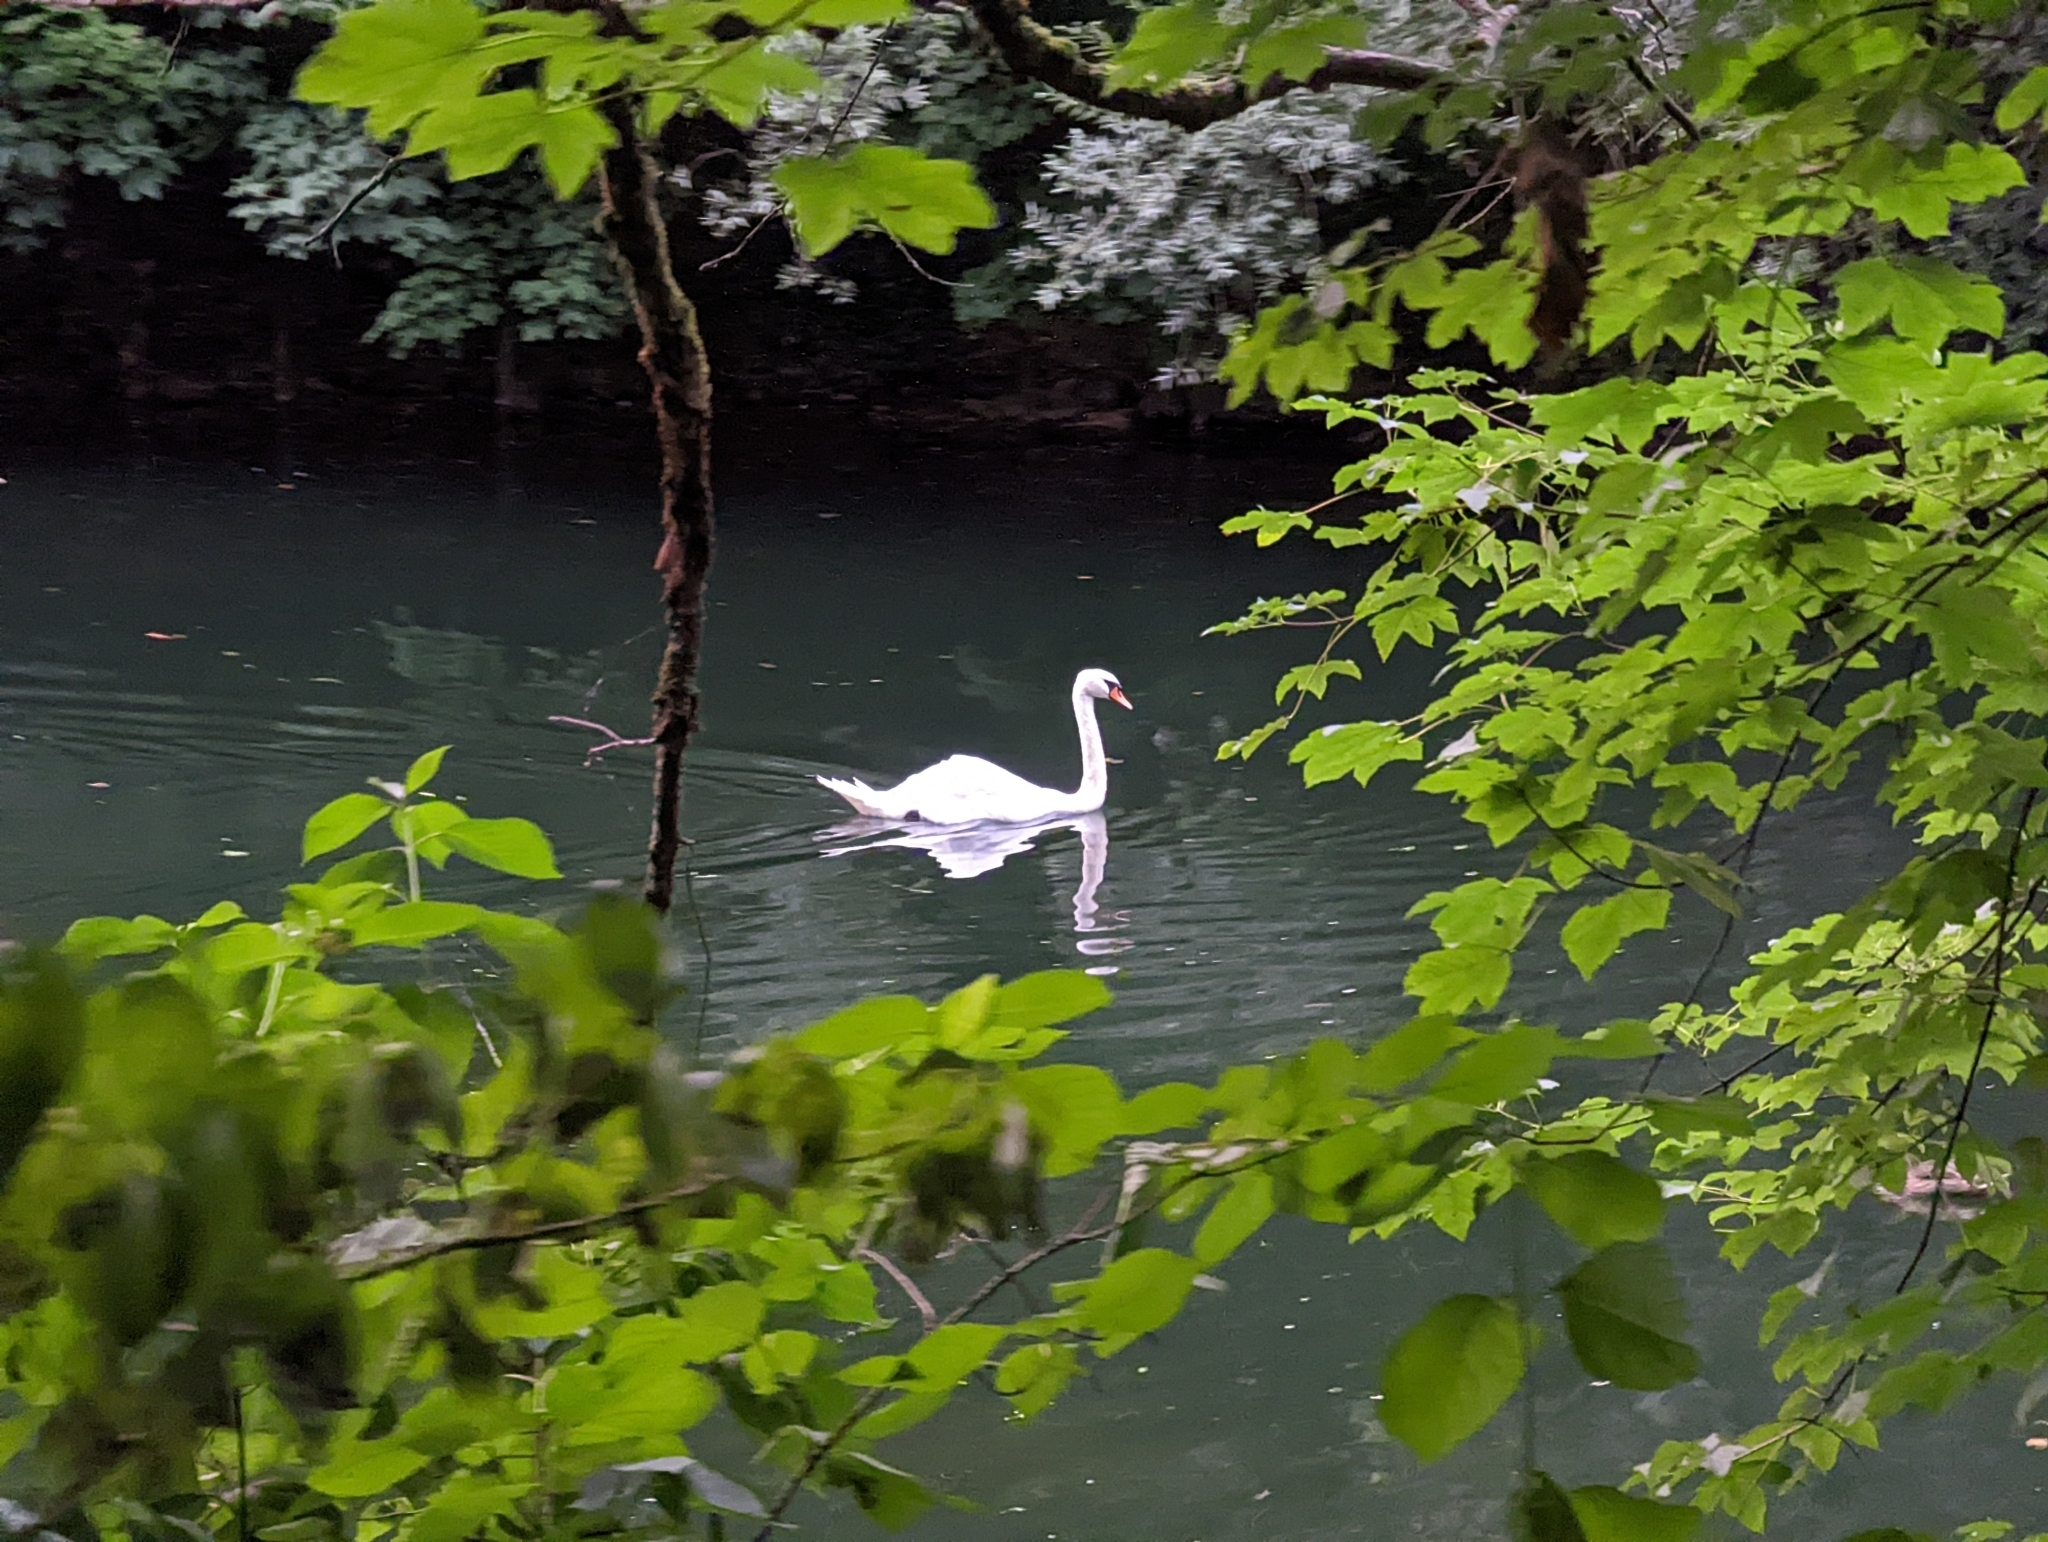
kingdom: Animalia
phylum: Chordata
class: Aves
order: Anseriformes
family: Anatidae
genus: Cygnus
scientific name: Cygnus olor
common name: Mute swan
